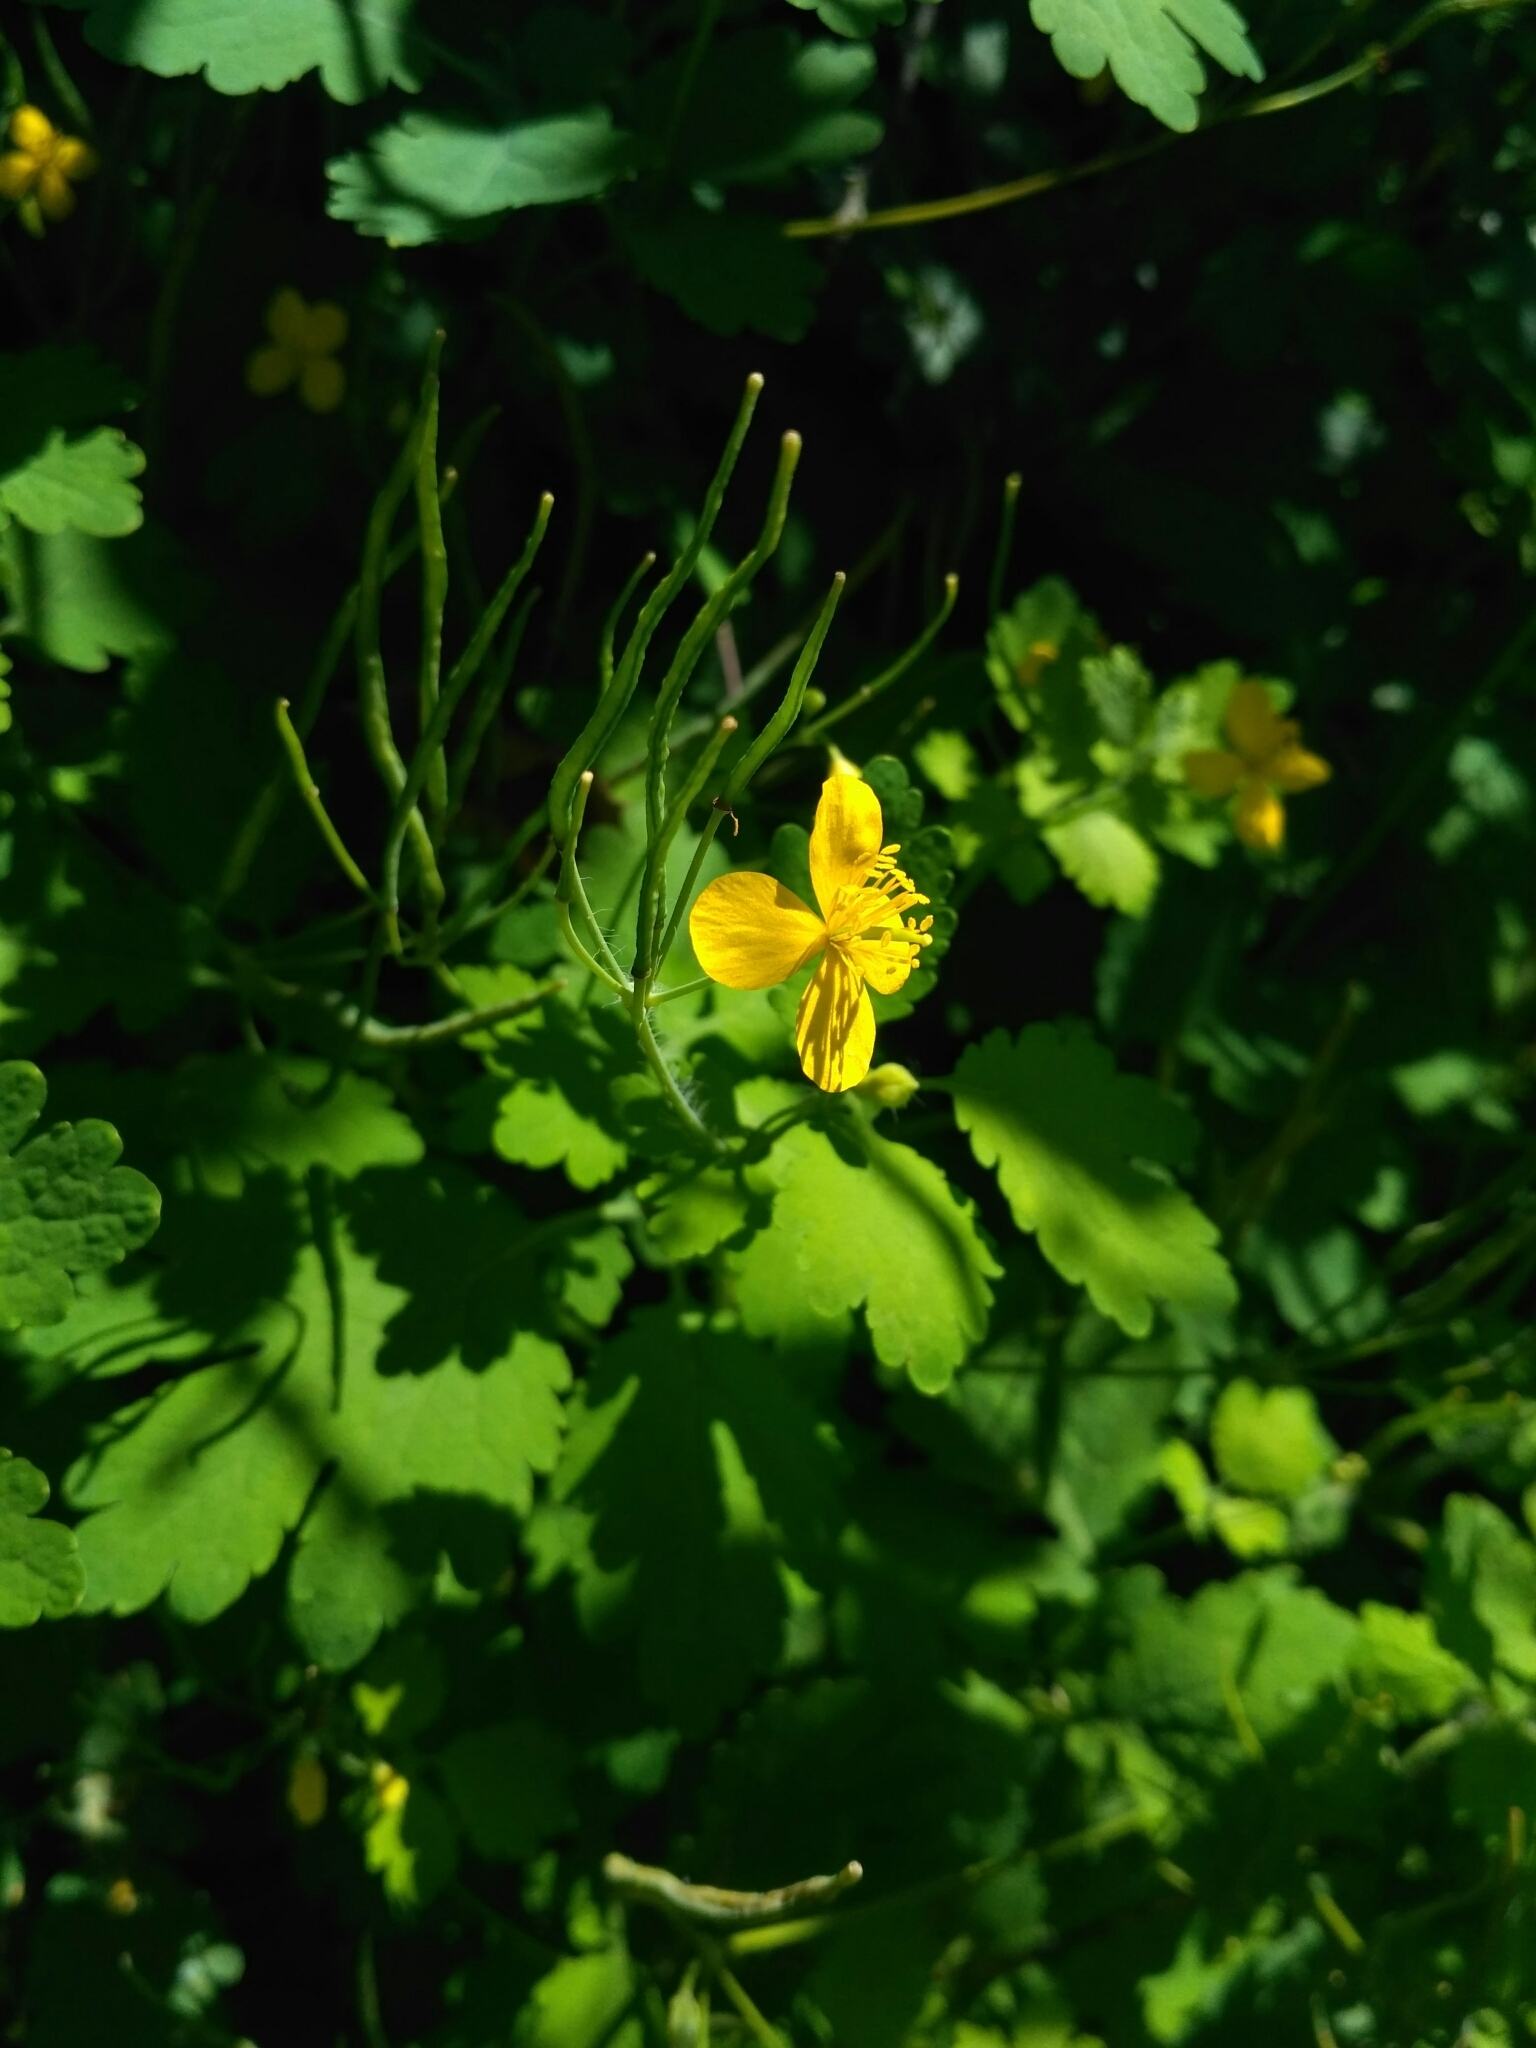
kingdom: Plantae
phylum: Tracheophyta
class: Magnoliopsida
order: Ranunculales
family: Papaveraceae
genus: Chelidonium
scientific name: Chelidonium majus
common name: Greater celandine
